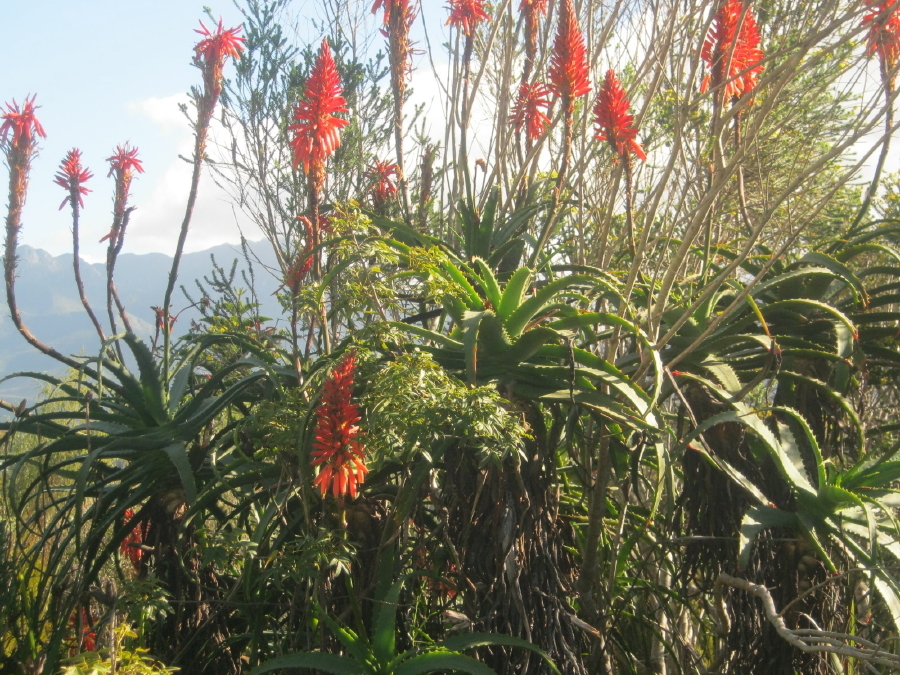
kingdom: Plantae
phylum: Tracheophyta
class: Liliopsida
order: Asparagales
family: Asphodelaceae
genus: Aloe
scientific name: Aloe arborescens
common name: Candelabra aloe
